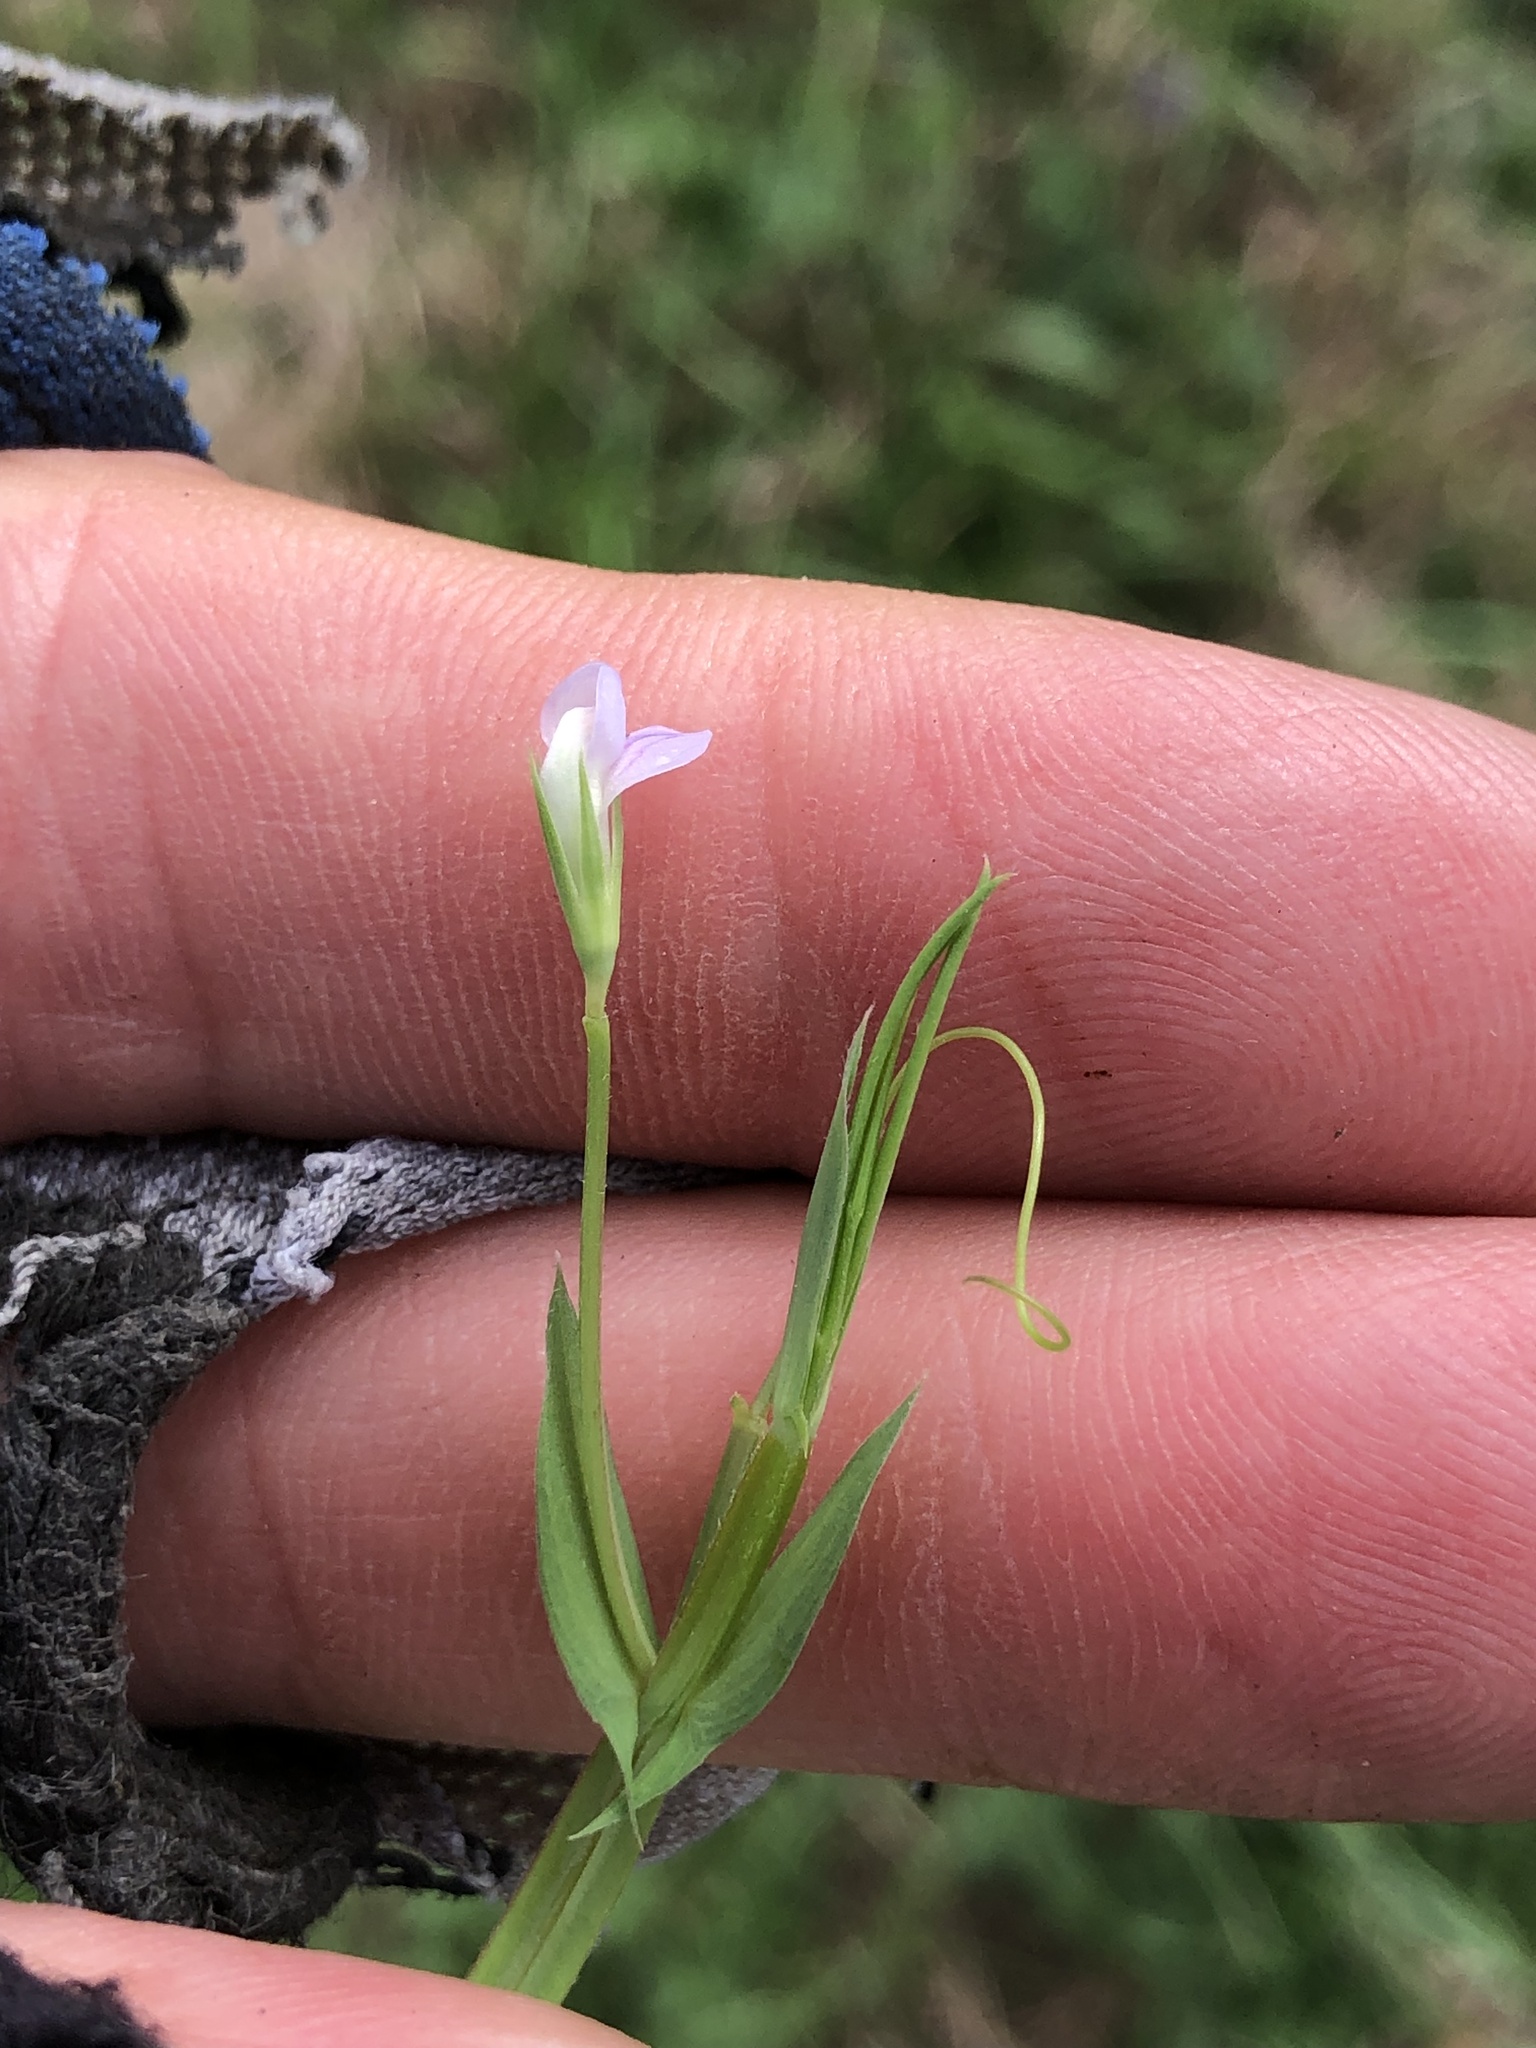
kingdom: Plantae
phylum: Tracheophyta
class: Magnoliopsida
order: Fabales
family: Fabaceae
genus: Lathyrus
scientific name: Lathyrus pusillus
